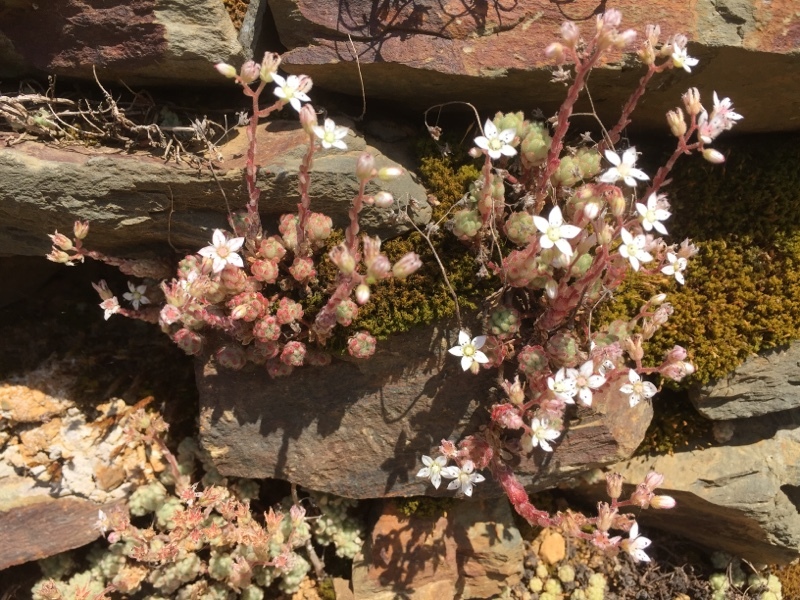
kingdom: Plantae
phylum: Tracheophyta
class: Magnoliopsida
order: Saxifragales
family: Crassulaceae
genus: Sedum
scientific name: Sedum hirsutum
